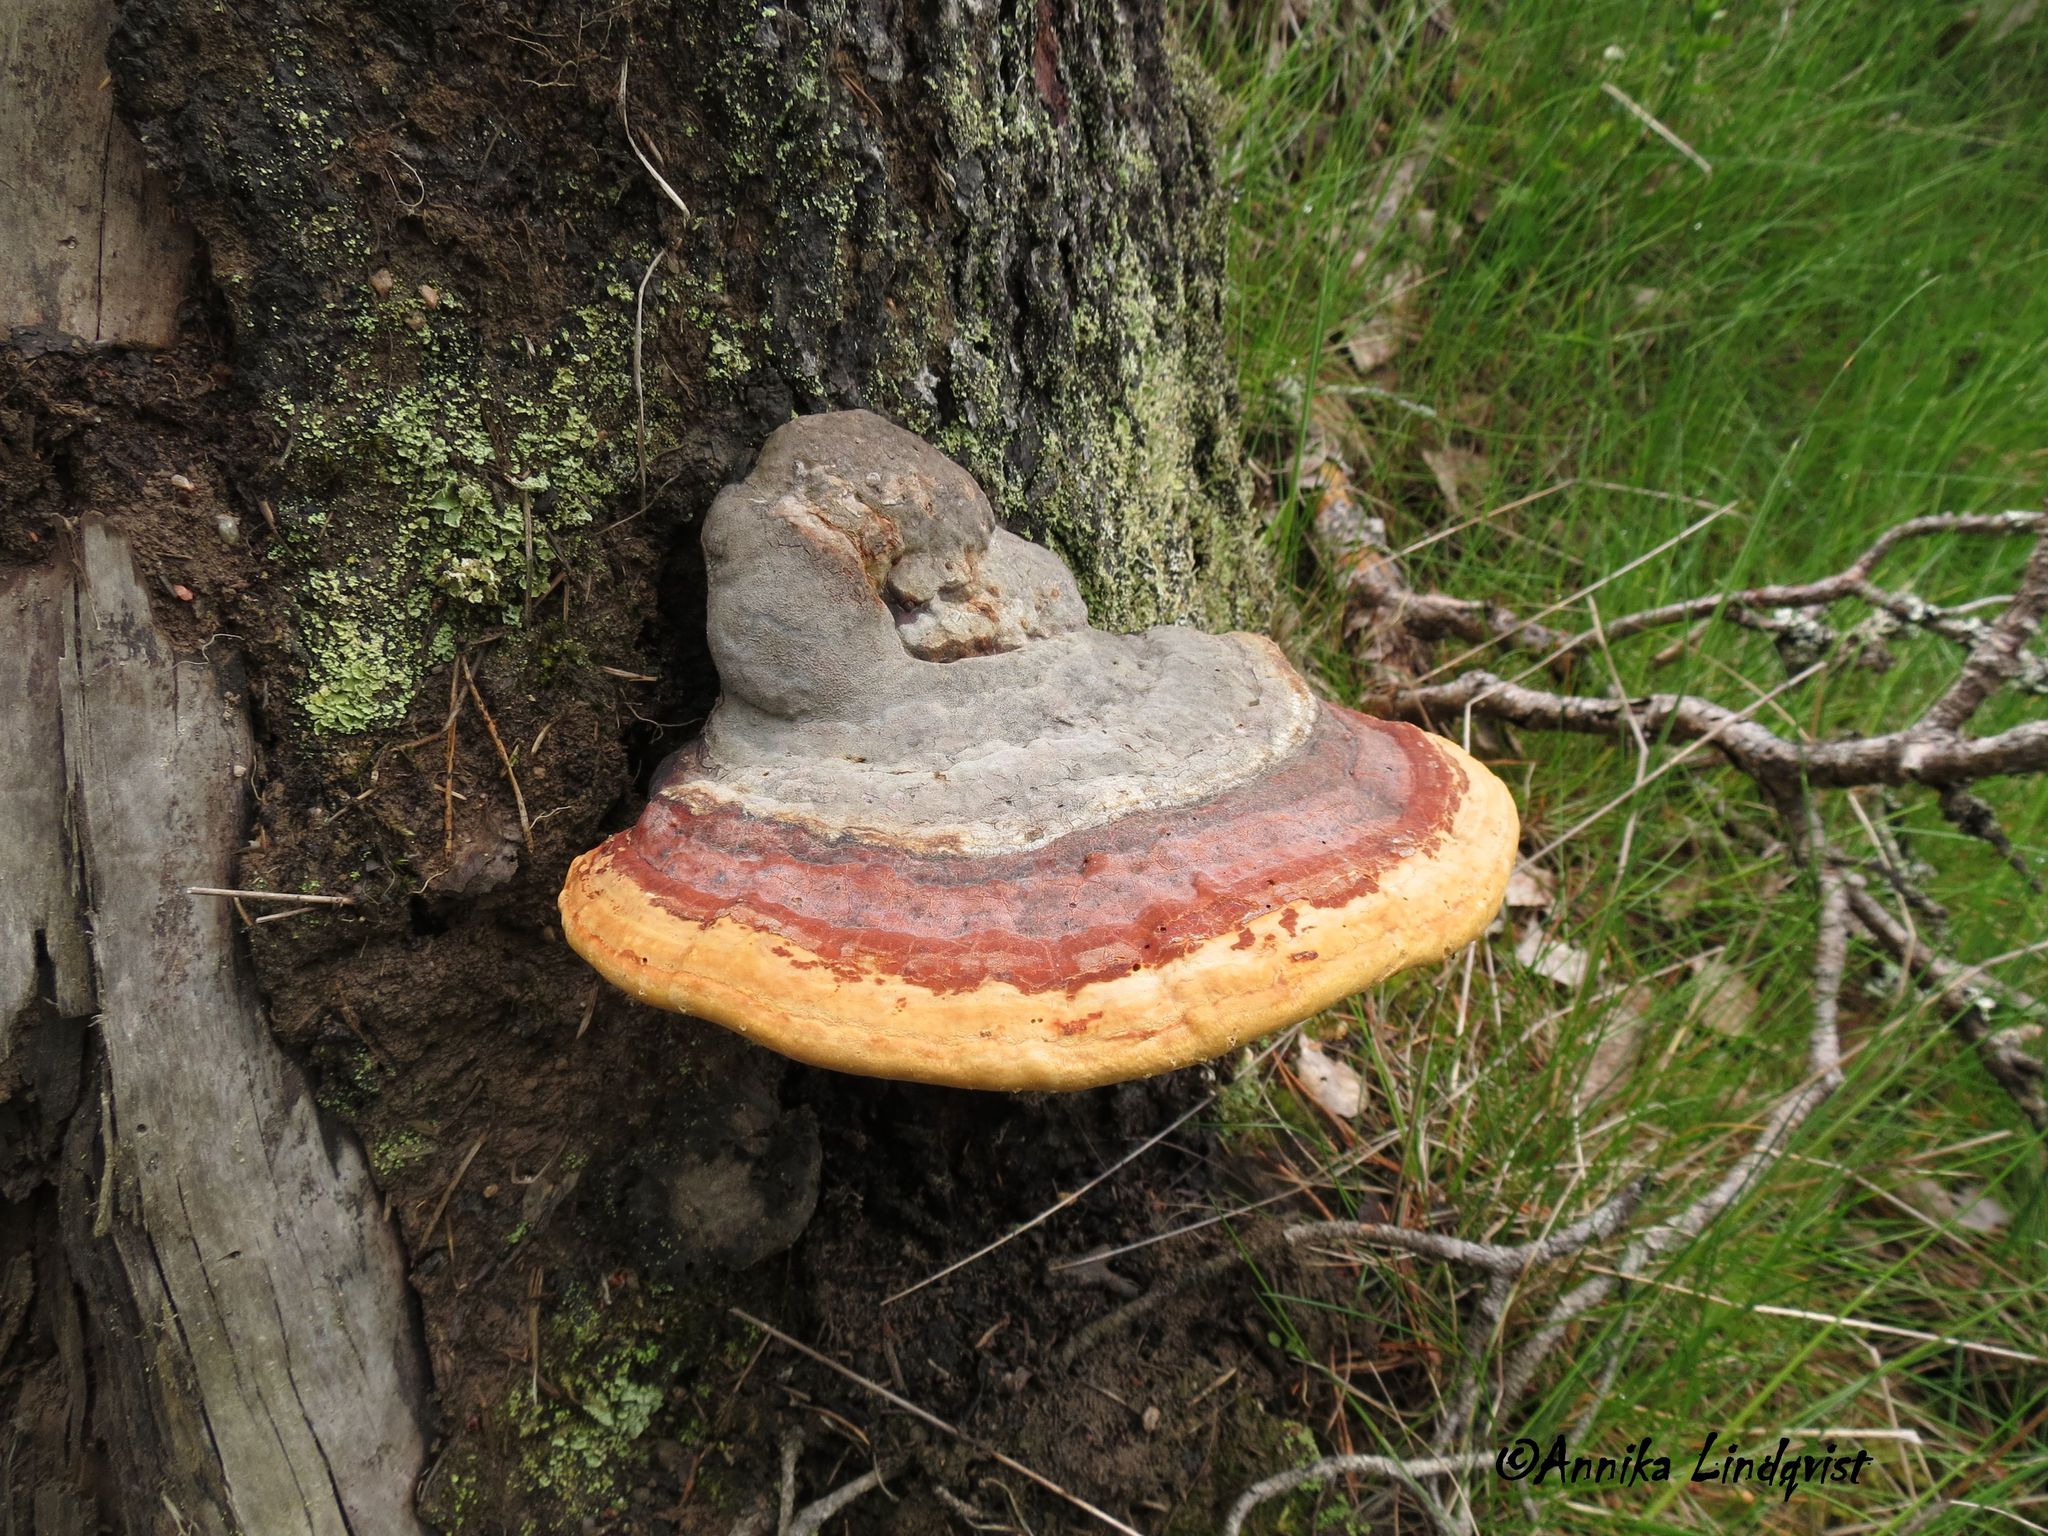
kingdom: Fungi
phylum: Basidiomycota
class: Agaricomycetes
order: Polyporales
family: Fomitopsidaceae
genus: Fomitopsis
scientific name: Fomitopsis pinicola
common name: Red-belted bracket
